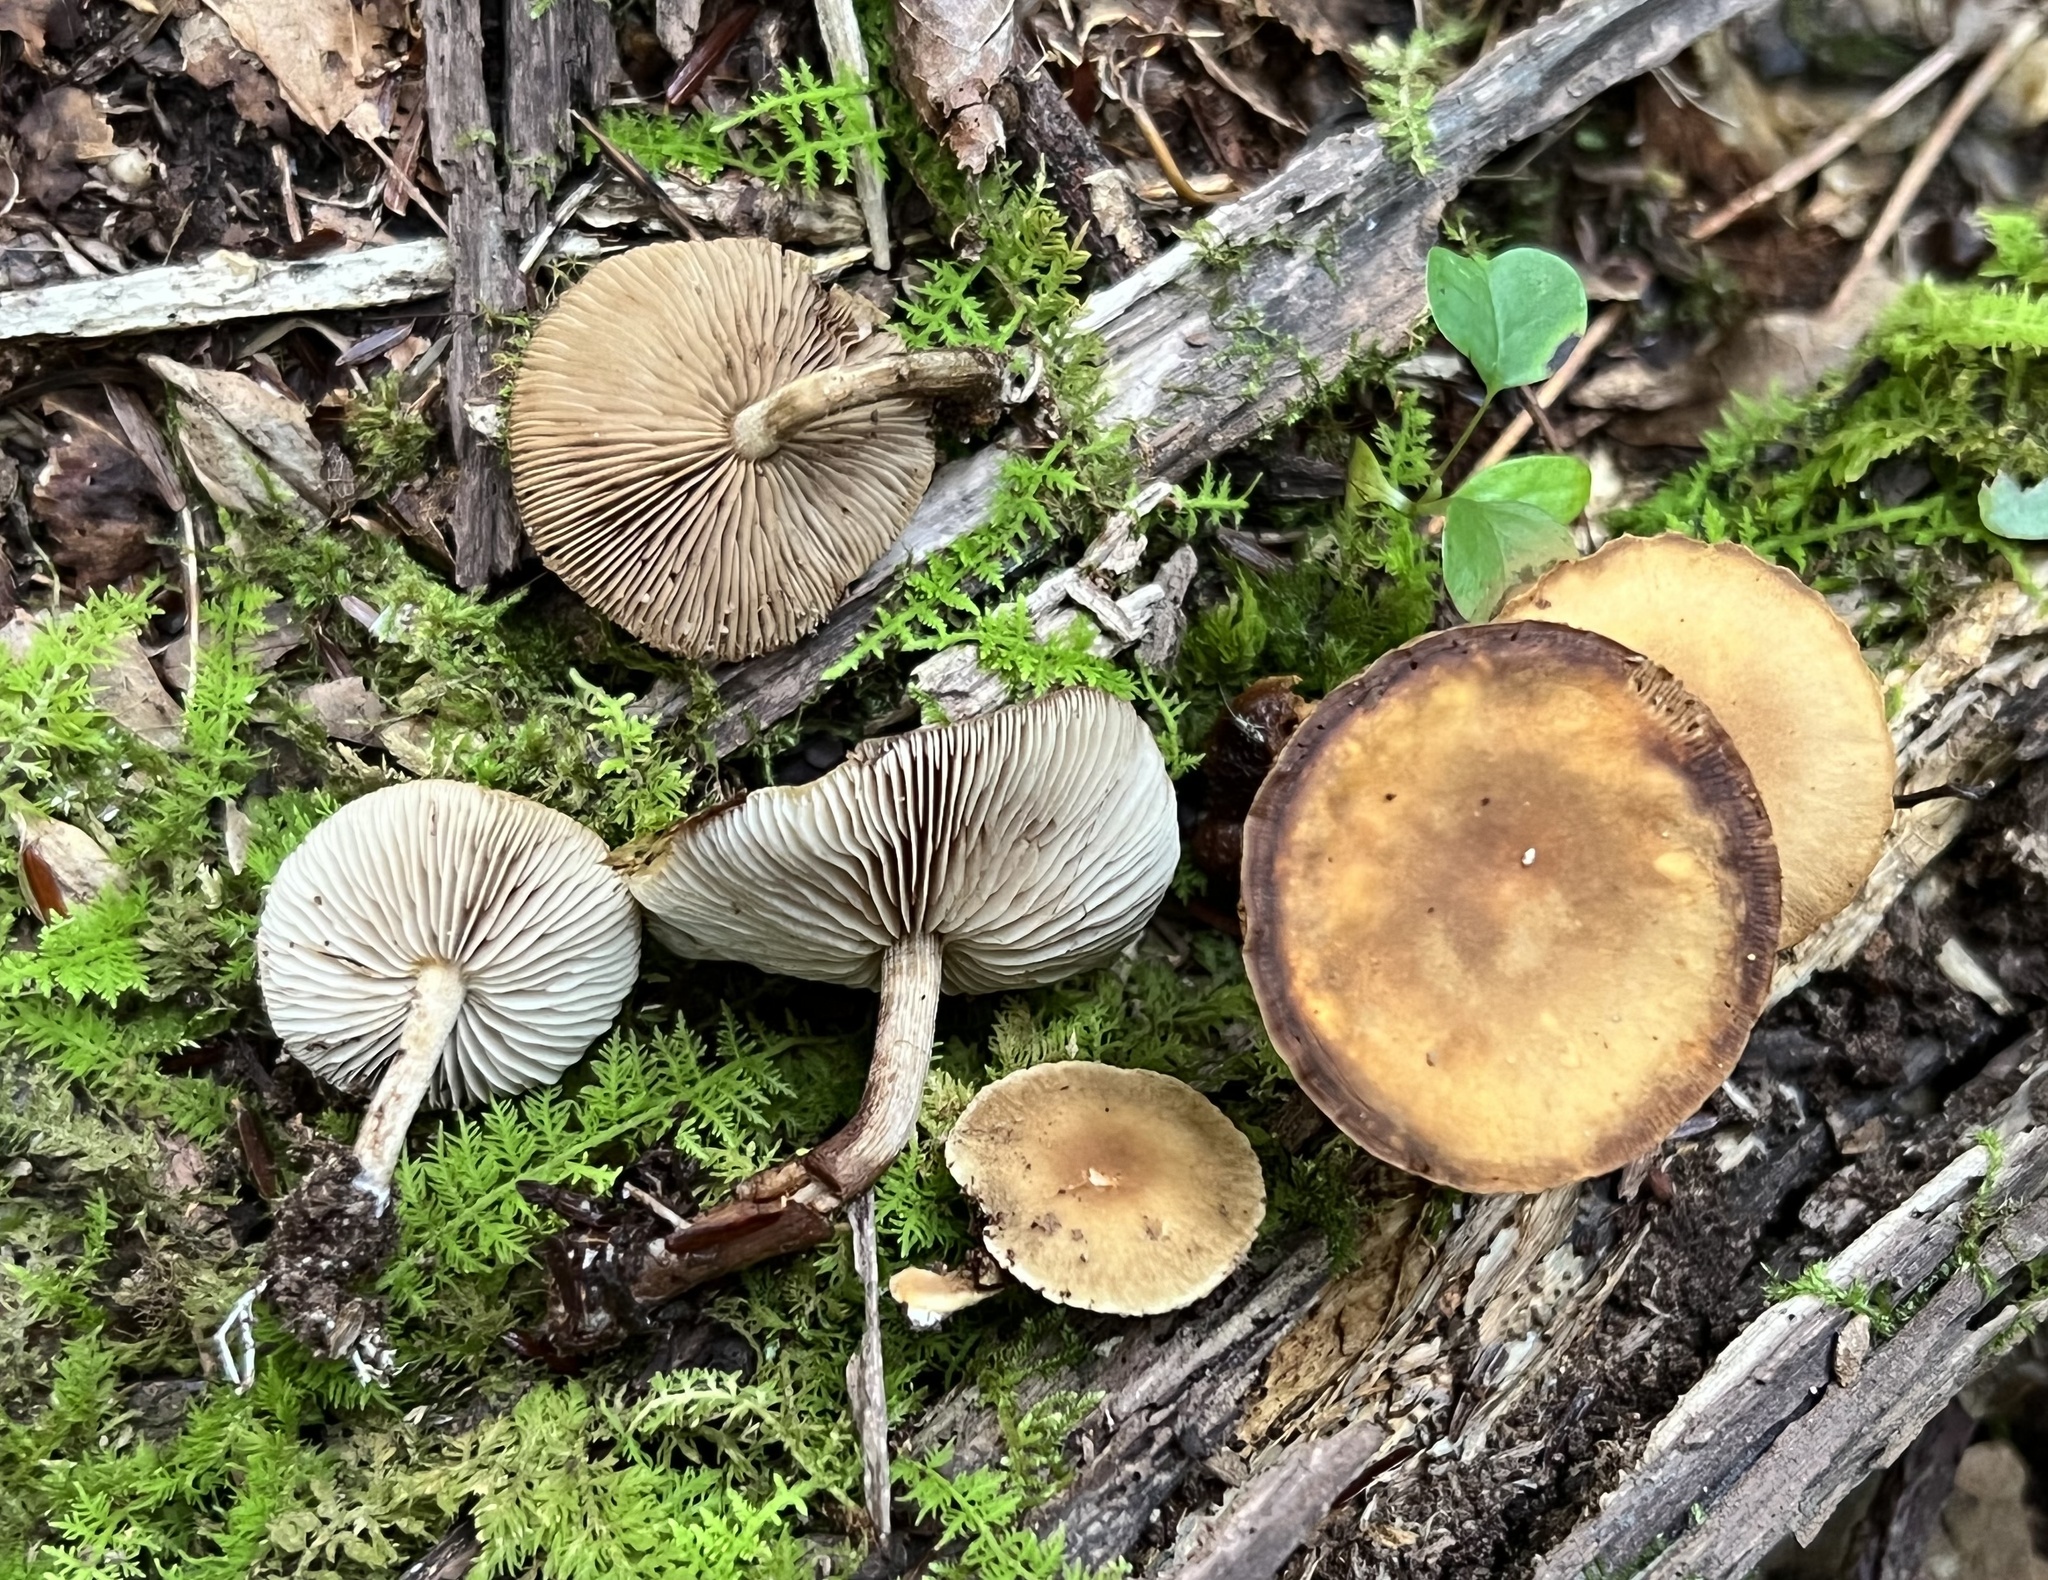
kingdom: Fungi
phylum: Basidiomycota
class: Agaricomycetes
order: Agaricales
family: Strophariaceae
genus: Agrocybe
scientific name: Agrocybe firma
